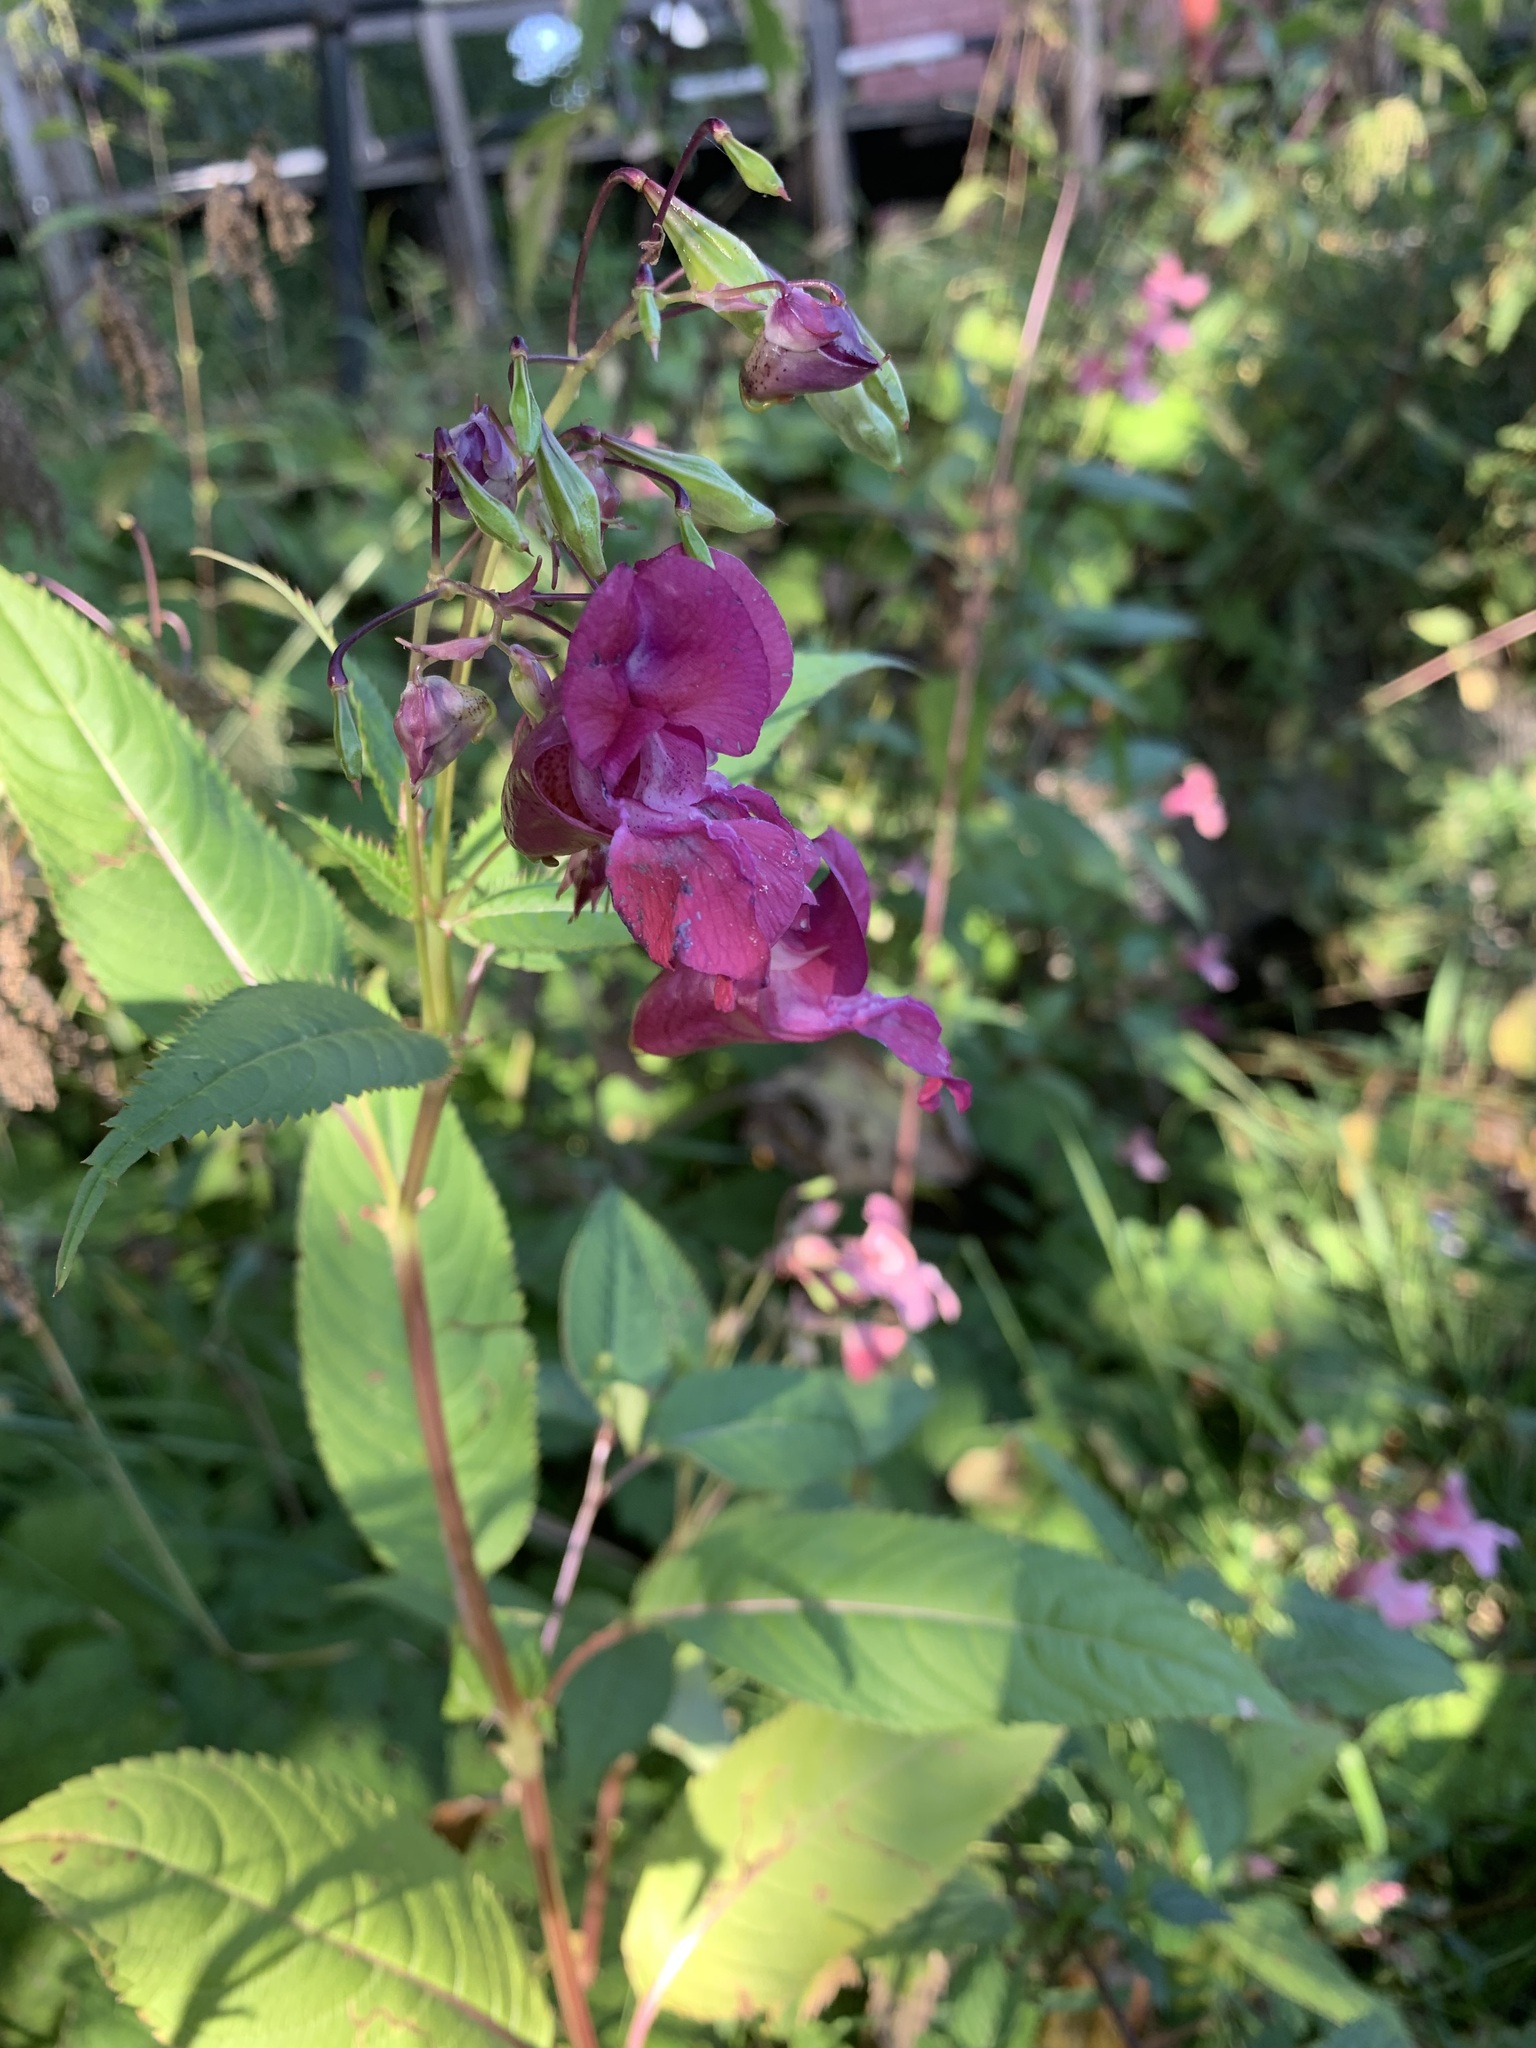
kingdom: Plantae
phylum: Tracheophyta
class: Magnoliopsida
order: Ericales
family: Balsaminaceae
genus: Impatiens
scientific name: Impatiens glandulifera
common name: Himalayan balsam
